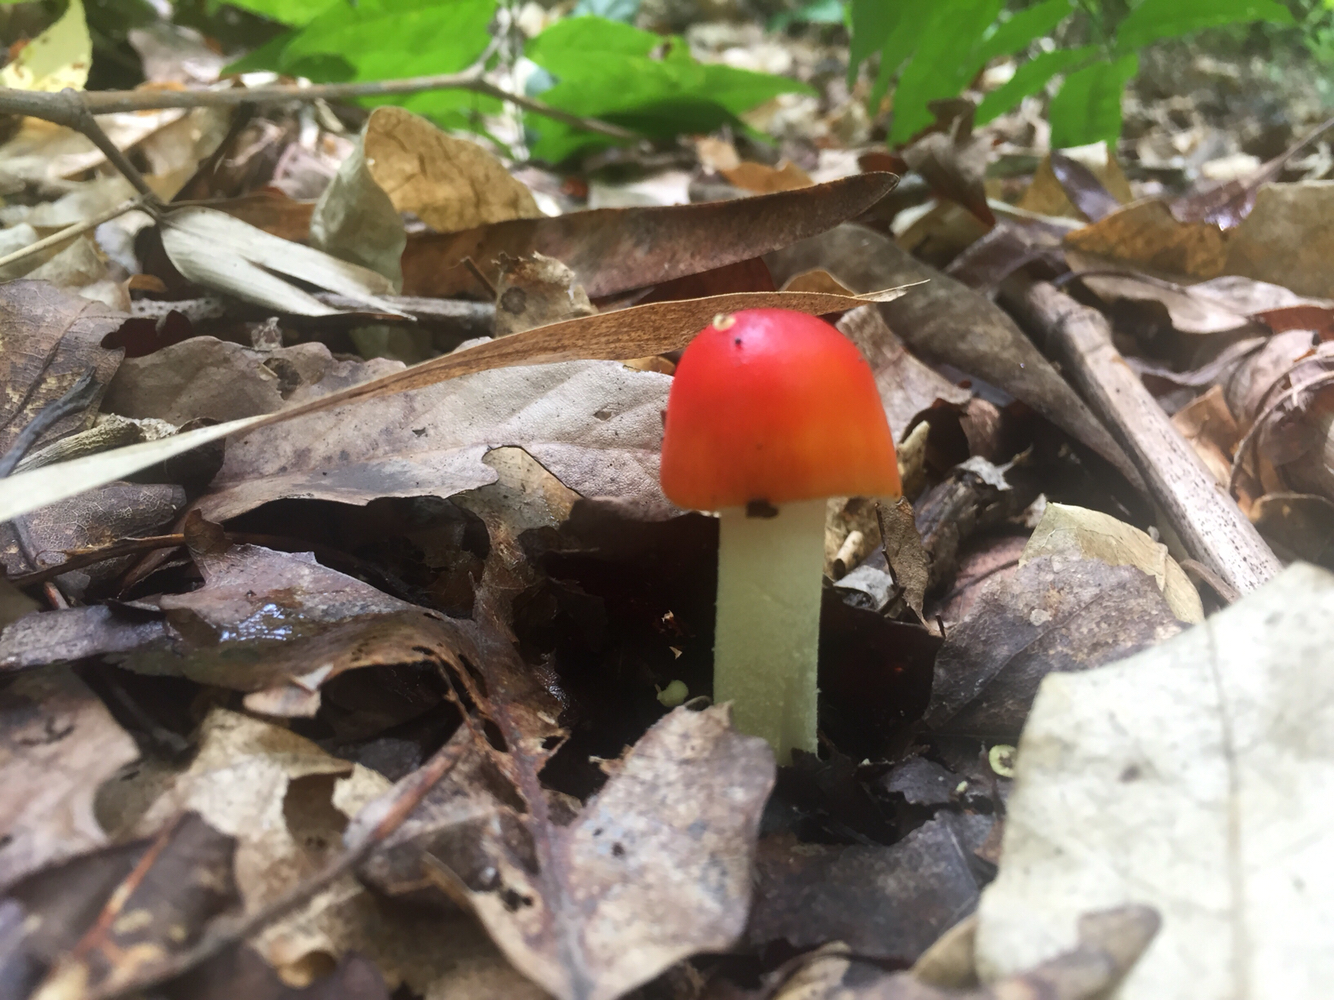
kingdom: Fungi
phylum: Basidiomycota
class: Agaricomycetes
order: Agaricales
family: Amanitaceae
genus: Amanita
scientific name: Amanita parcivolvata
